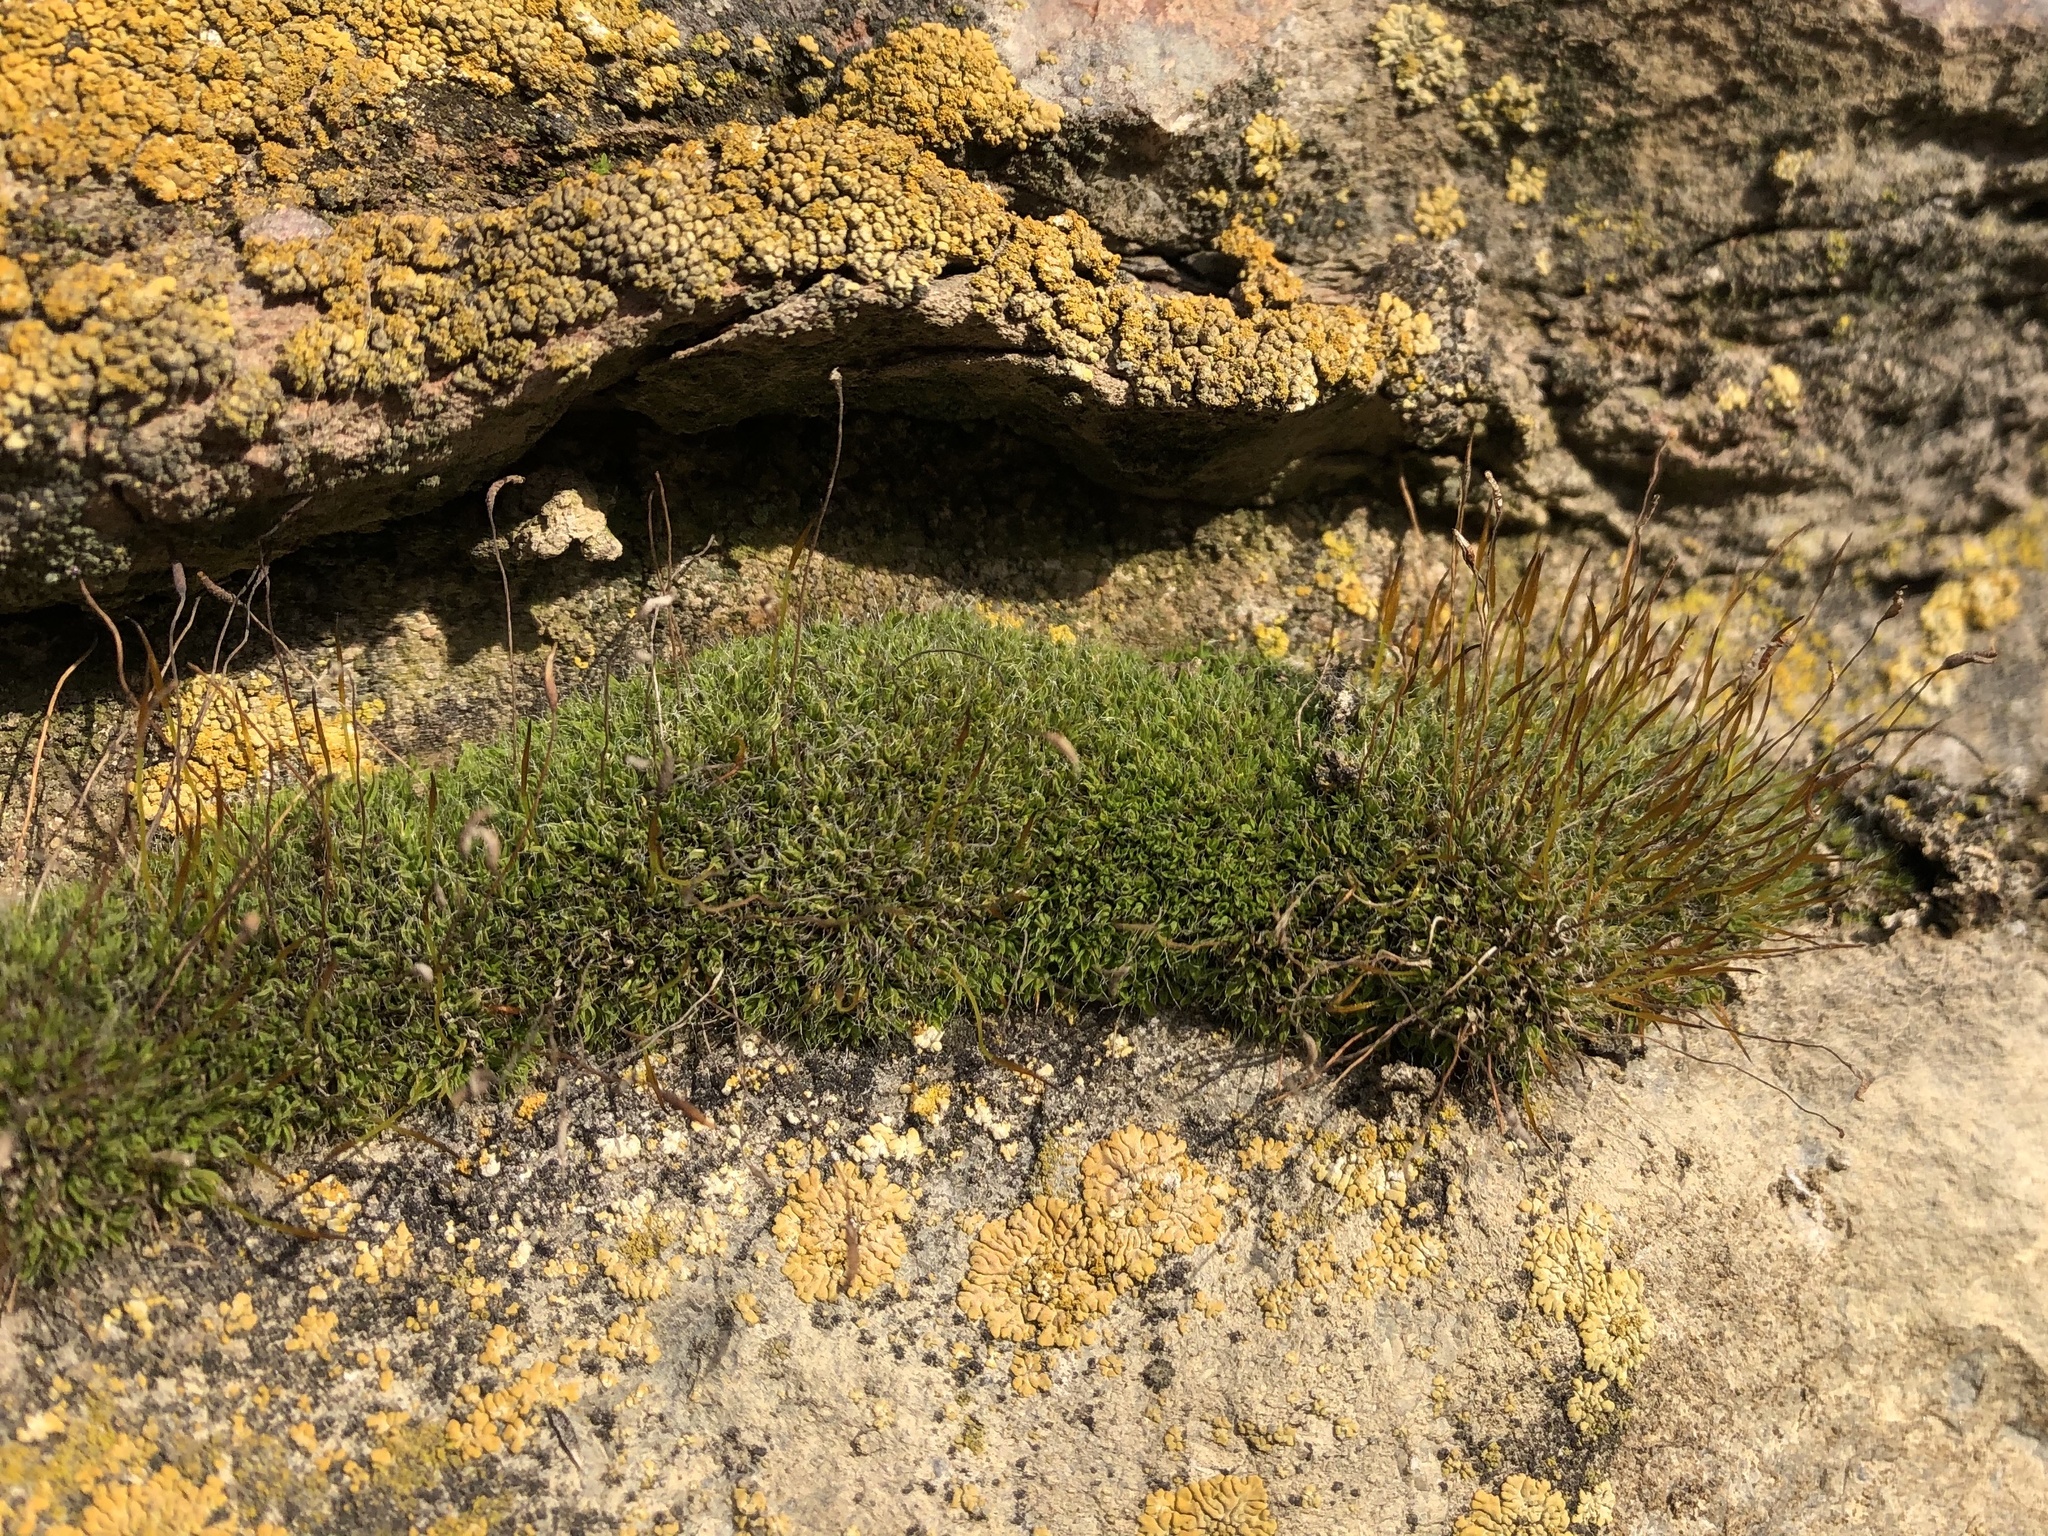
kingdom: Plantae
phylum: Bryophyta
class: Bryopsida
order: Pottiales
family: Pottiaceae
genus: Tortula
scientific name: Tortula muralis
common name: Wall screw-moss
